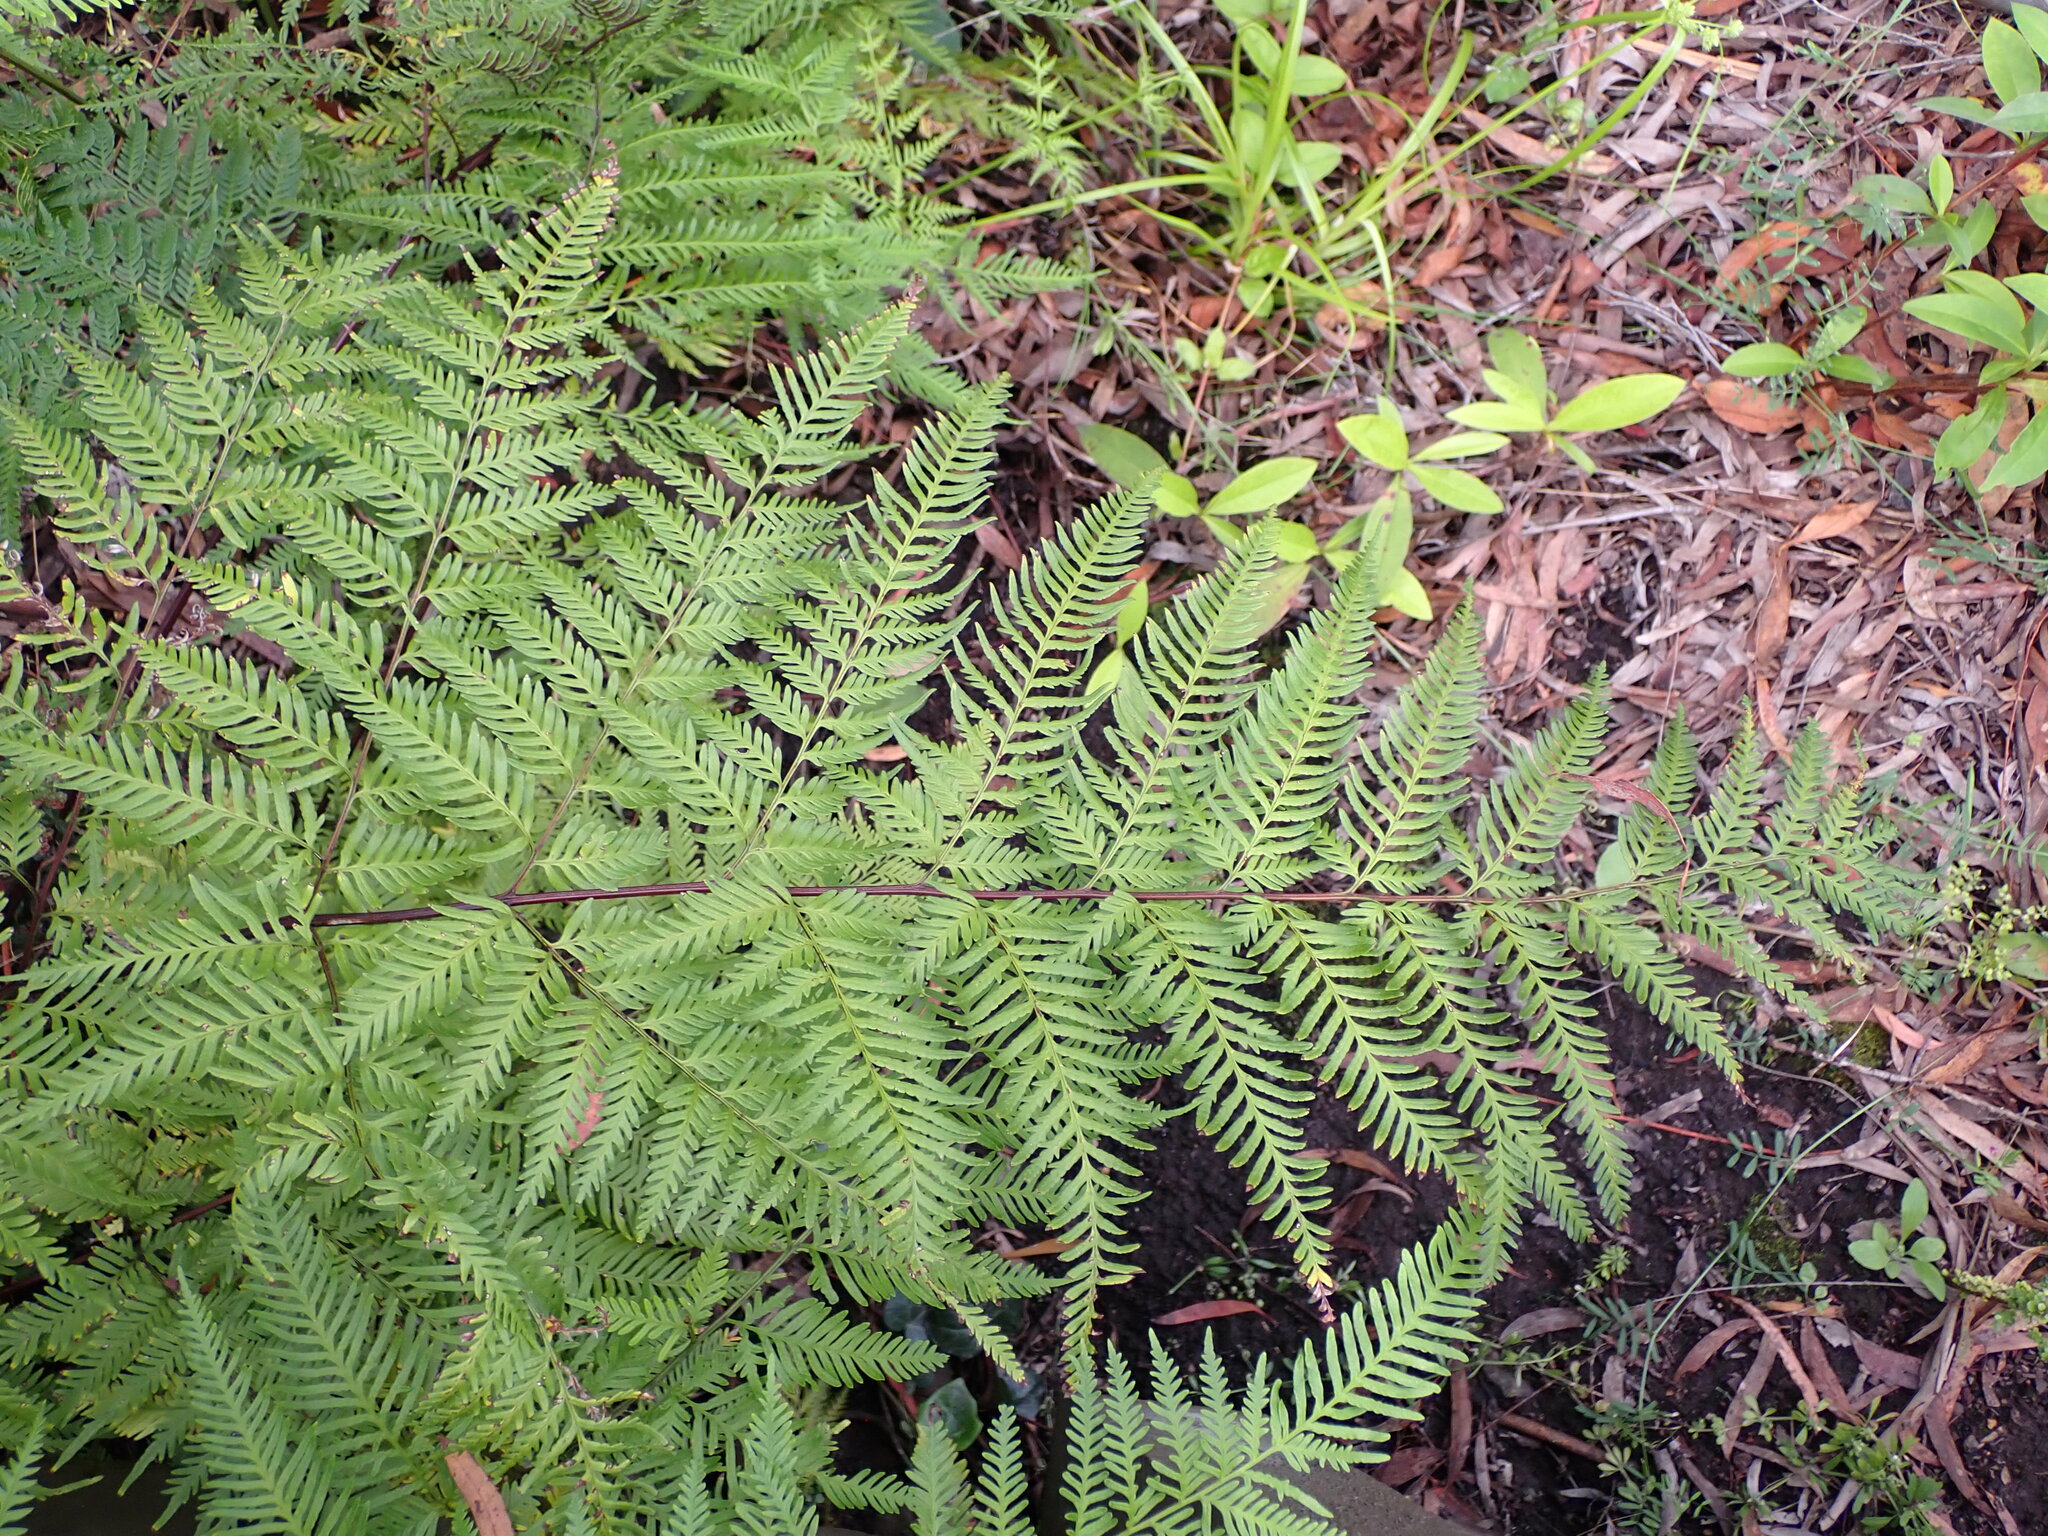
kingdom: Plantae
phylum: Tracheophyta
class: Polypodiopsida
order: Polypodiales
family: Pteridaceae
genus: Pteris
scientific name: Pteris tremula
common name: Australian brake
